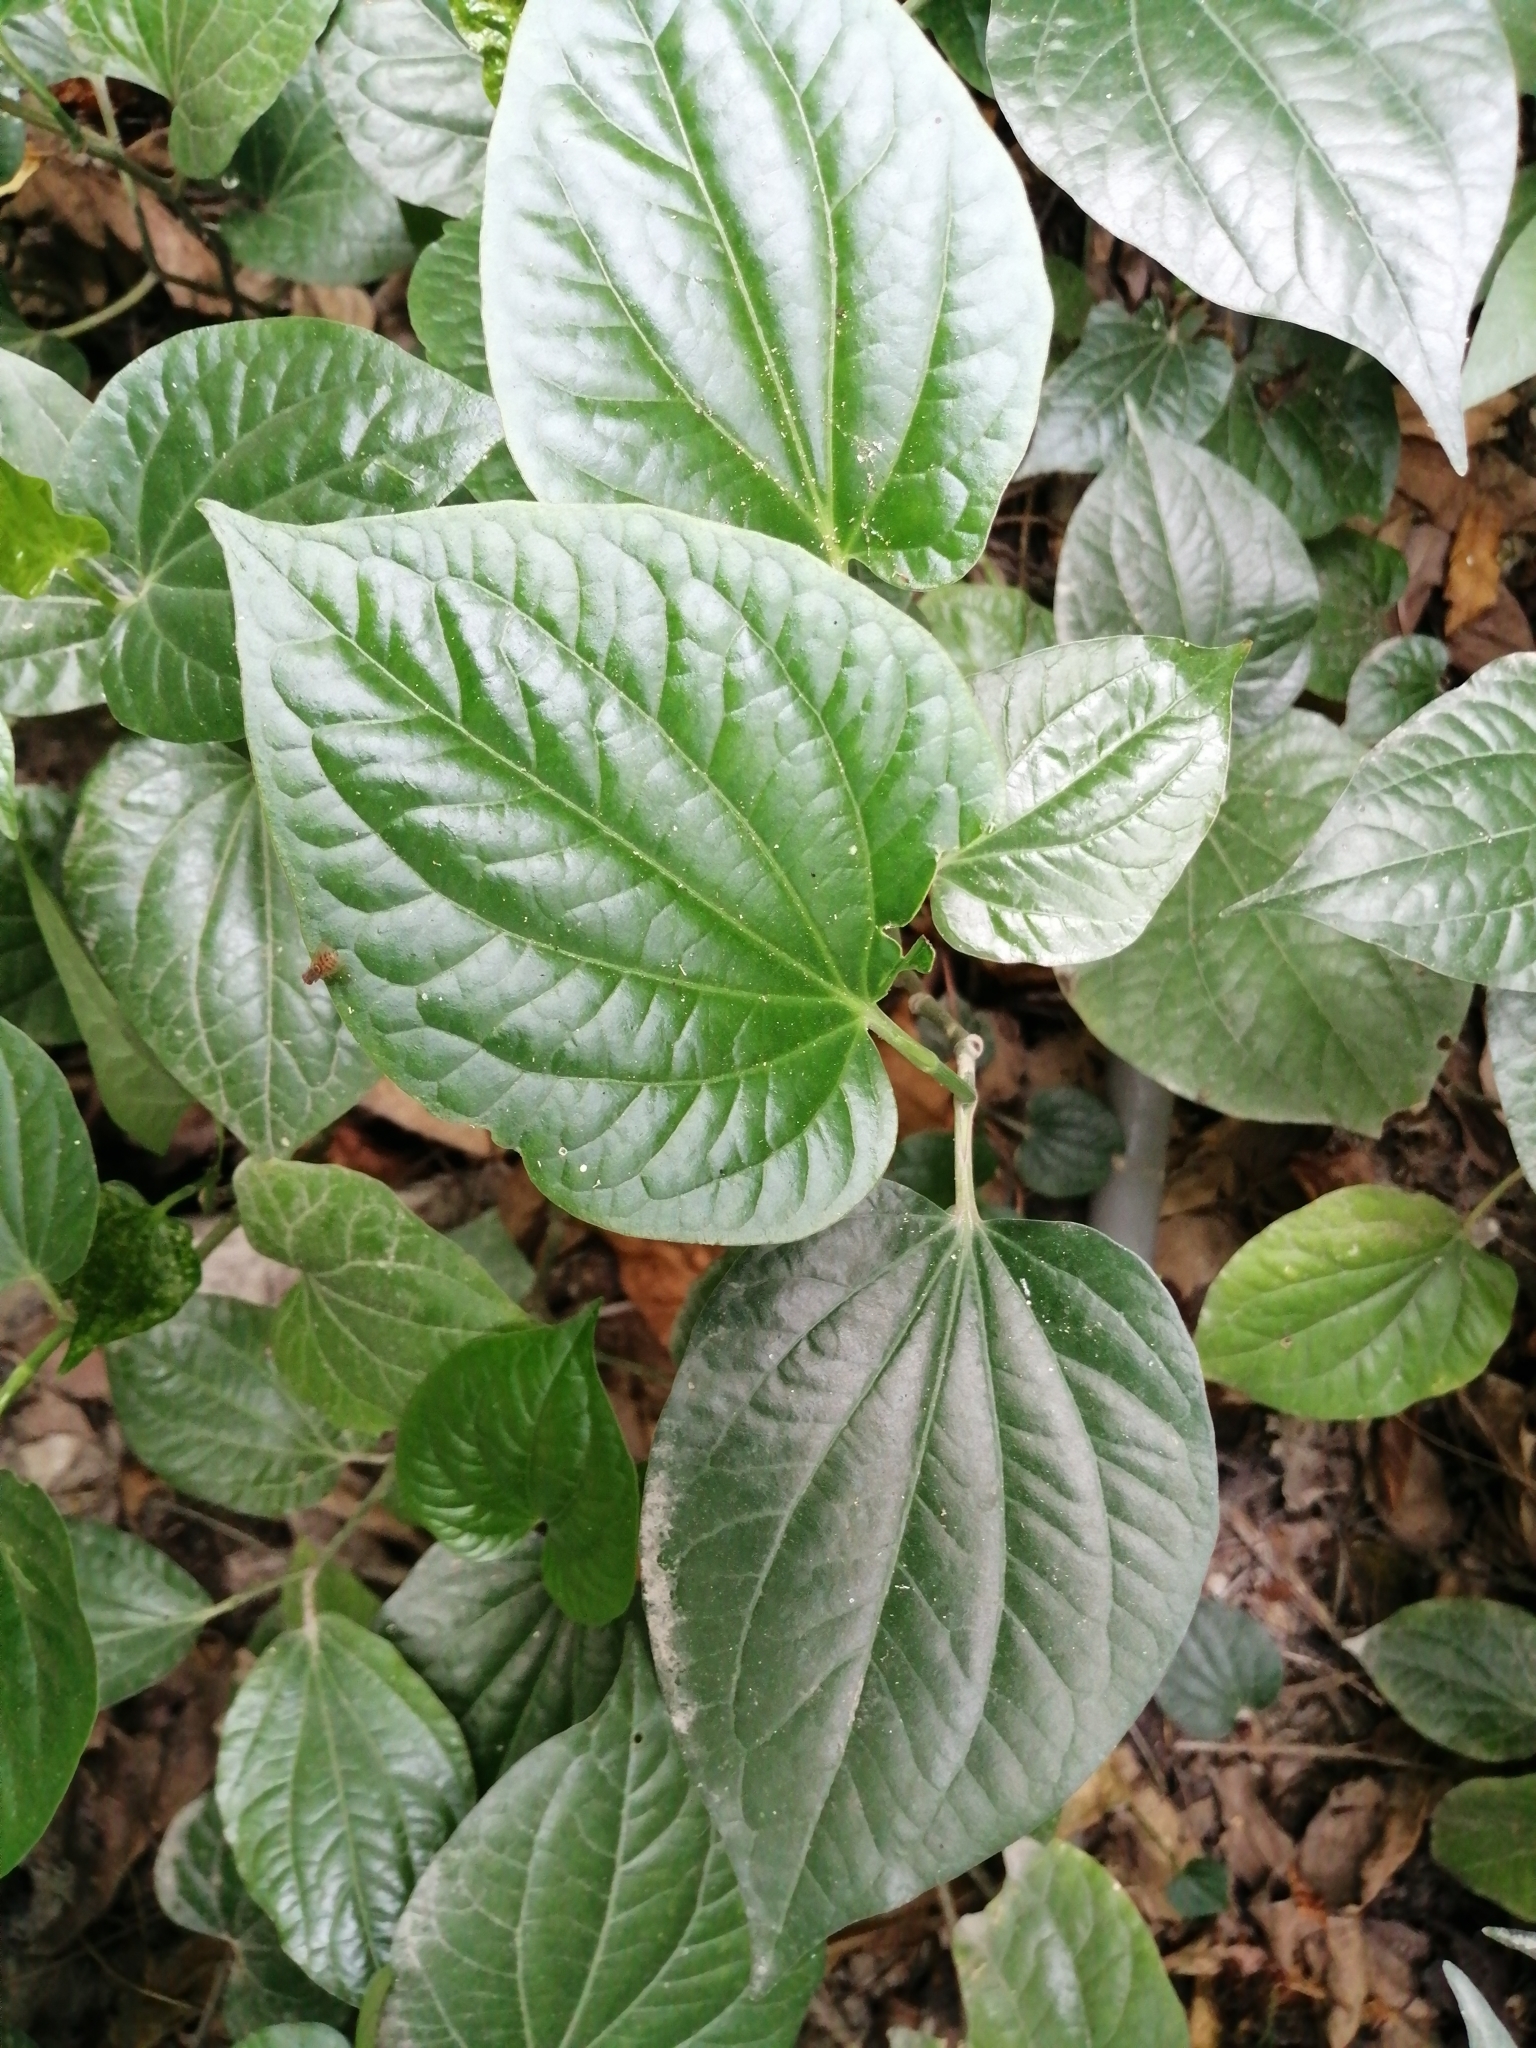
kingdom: Plantae
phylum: Tracheophyta
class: Magnoliopsida
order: Piperales
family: Piperaceae
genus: Piper
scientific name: Piper sarmentosum
